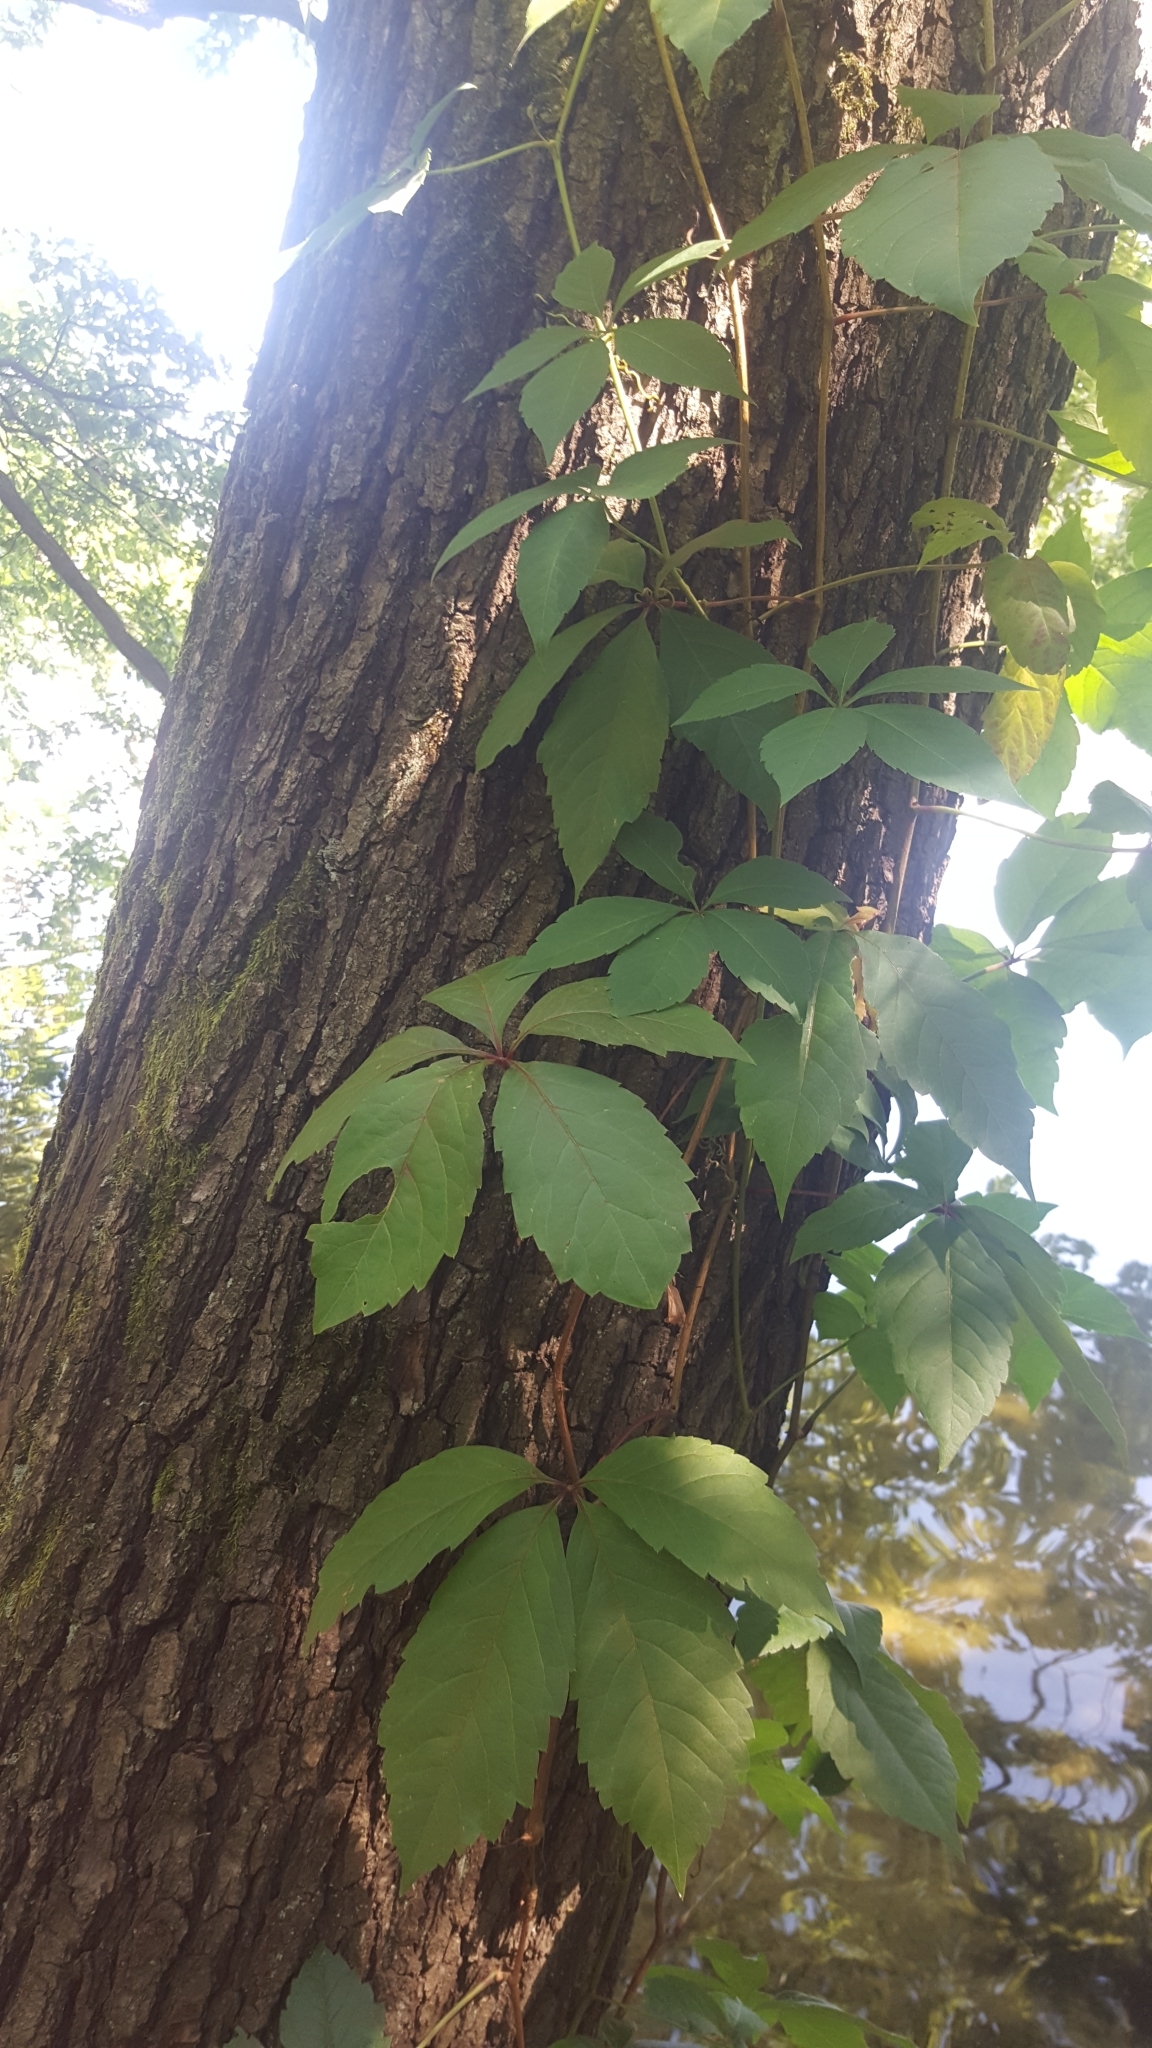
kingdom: Plantae
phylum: Tracheophyta
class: Magnoliopsida
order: Vitales
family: Vitaceae
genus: Parthenocissus
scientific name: Parthenocissus inserta
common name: False virginia-creeper
